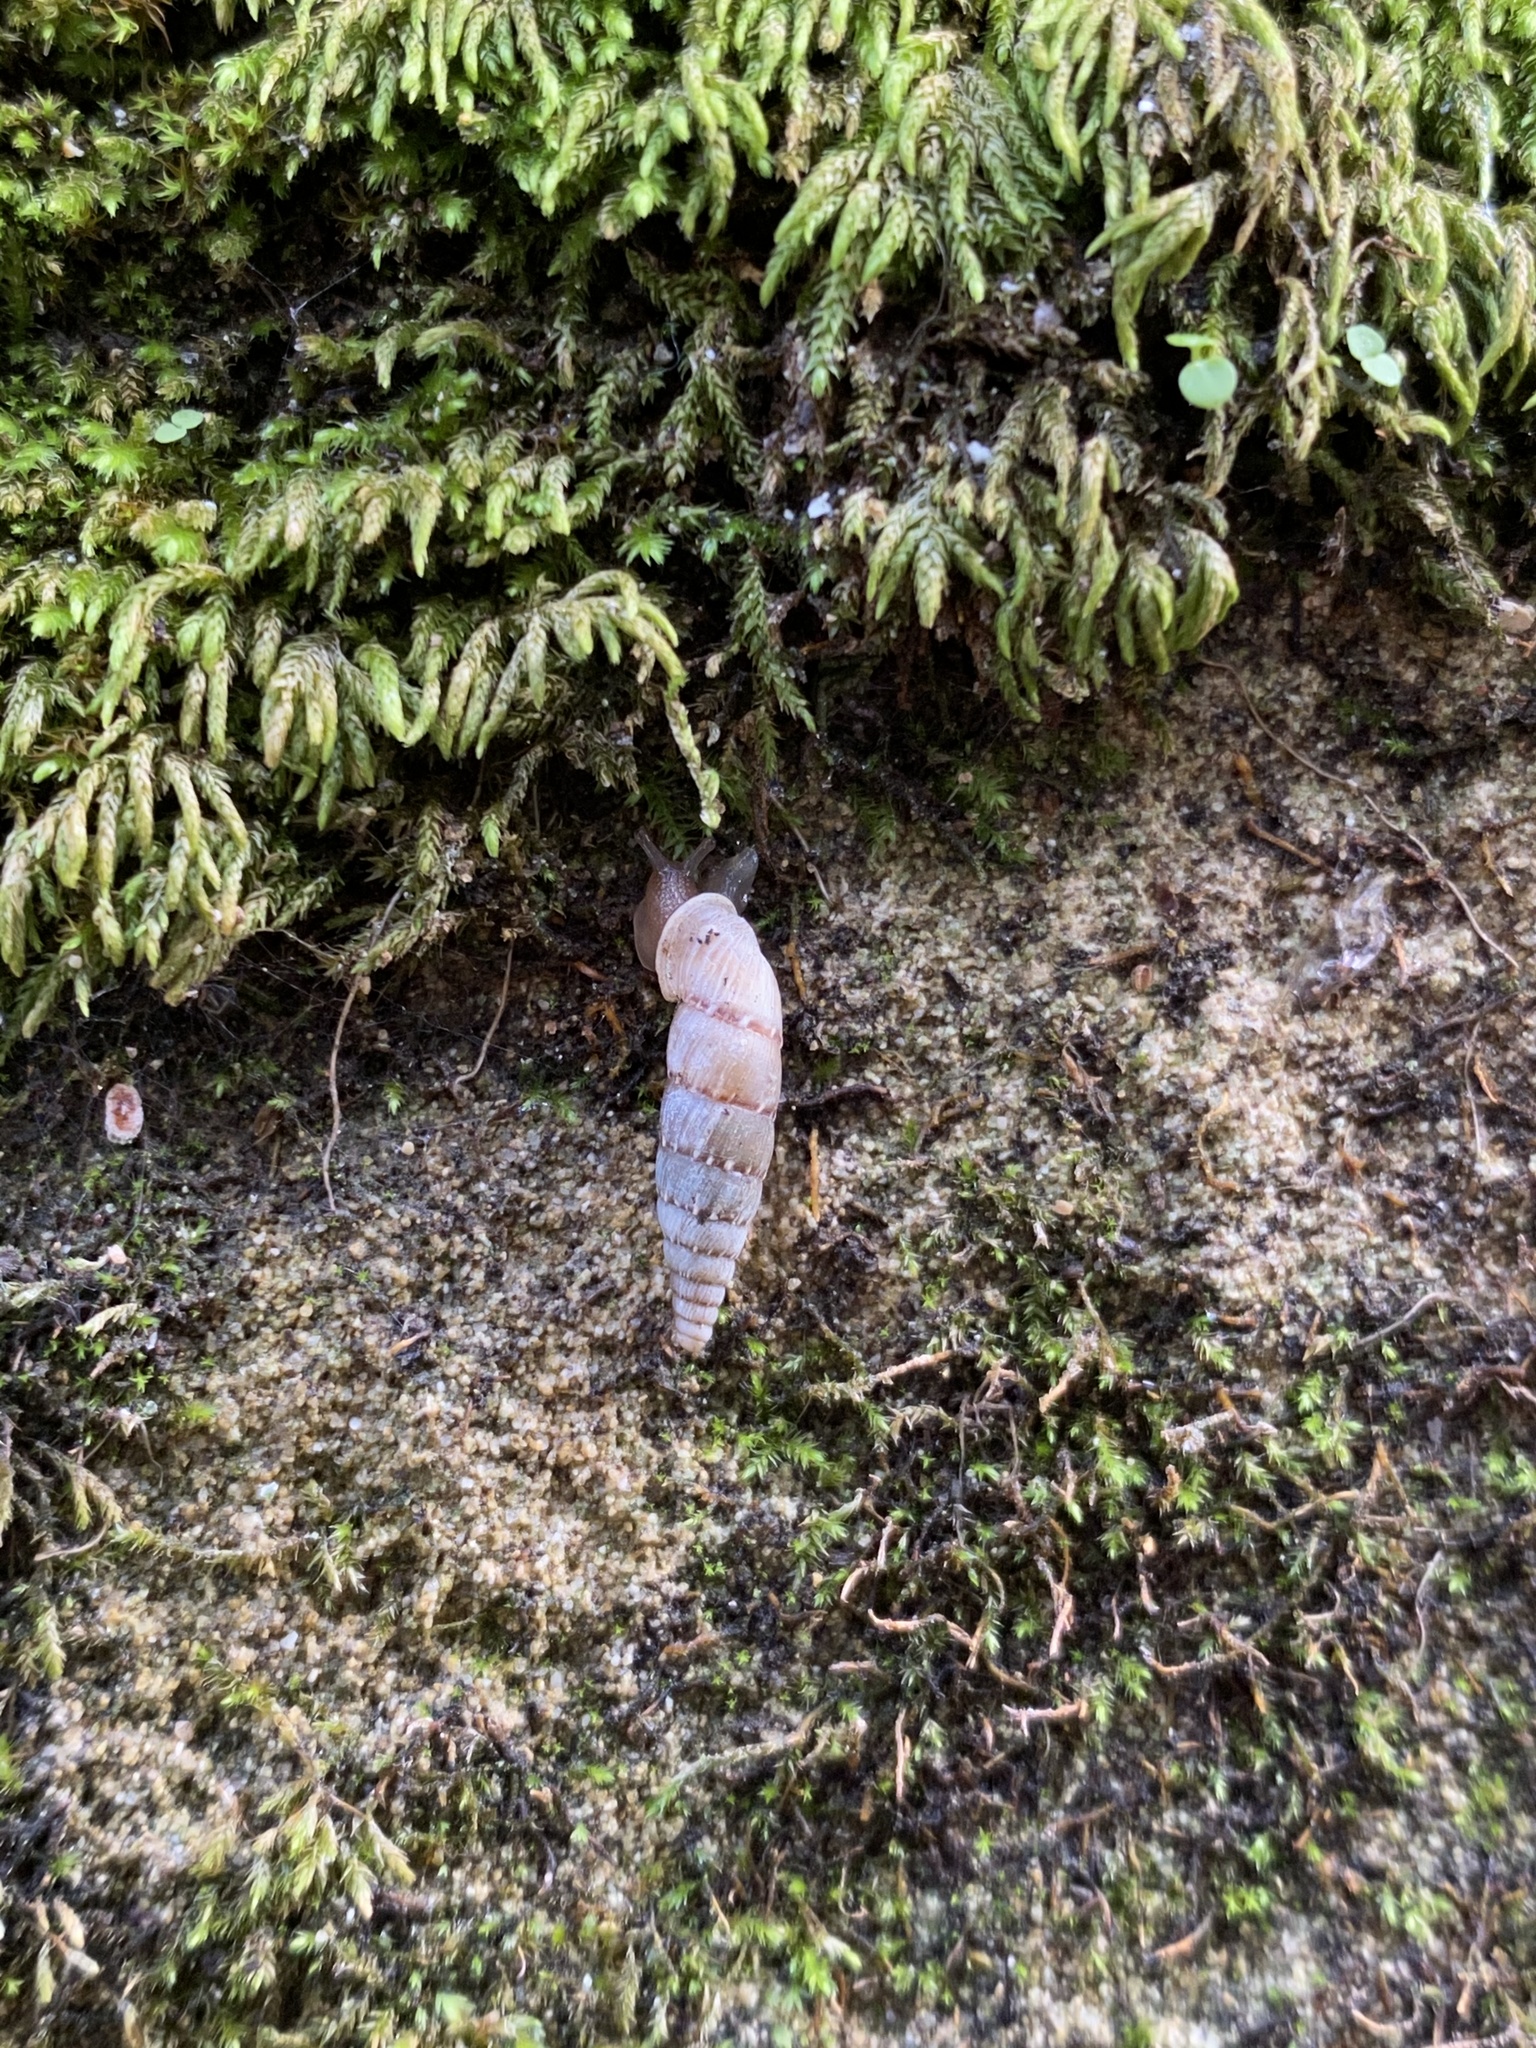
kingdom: Animalia
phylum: Mollusca
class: Gastropoda
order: Stylommatophora
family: Clausiliidae
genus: Papillifera
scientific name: Papillifera papillaris
